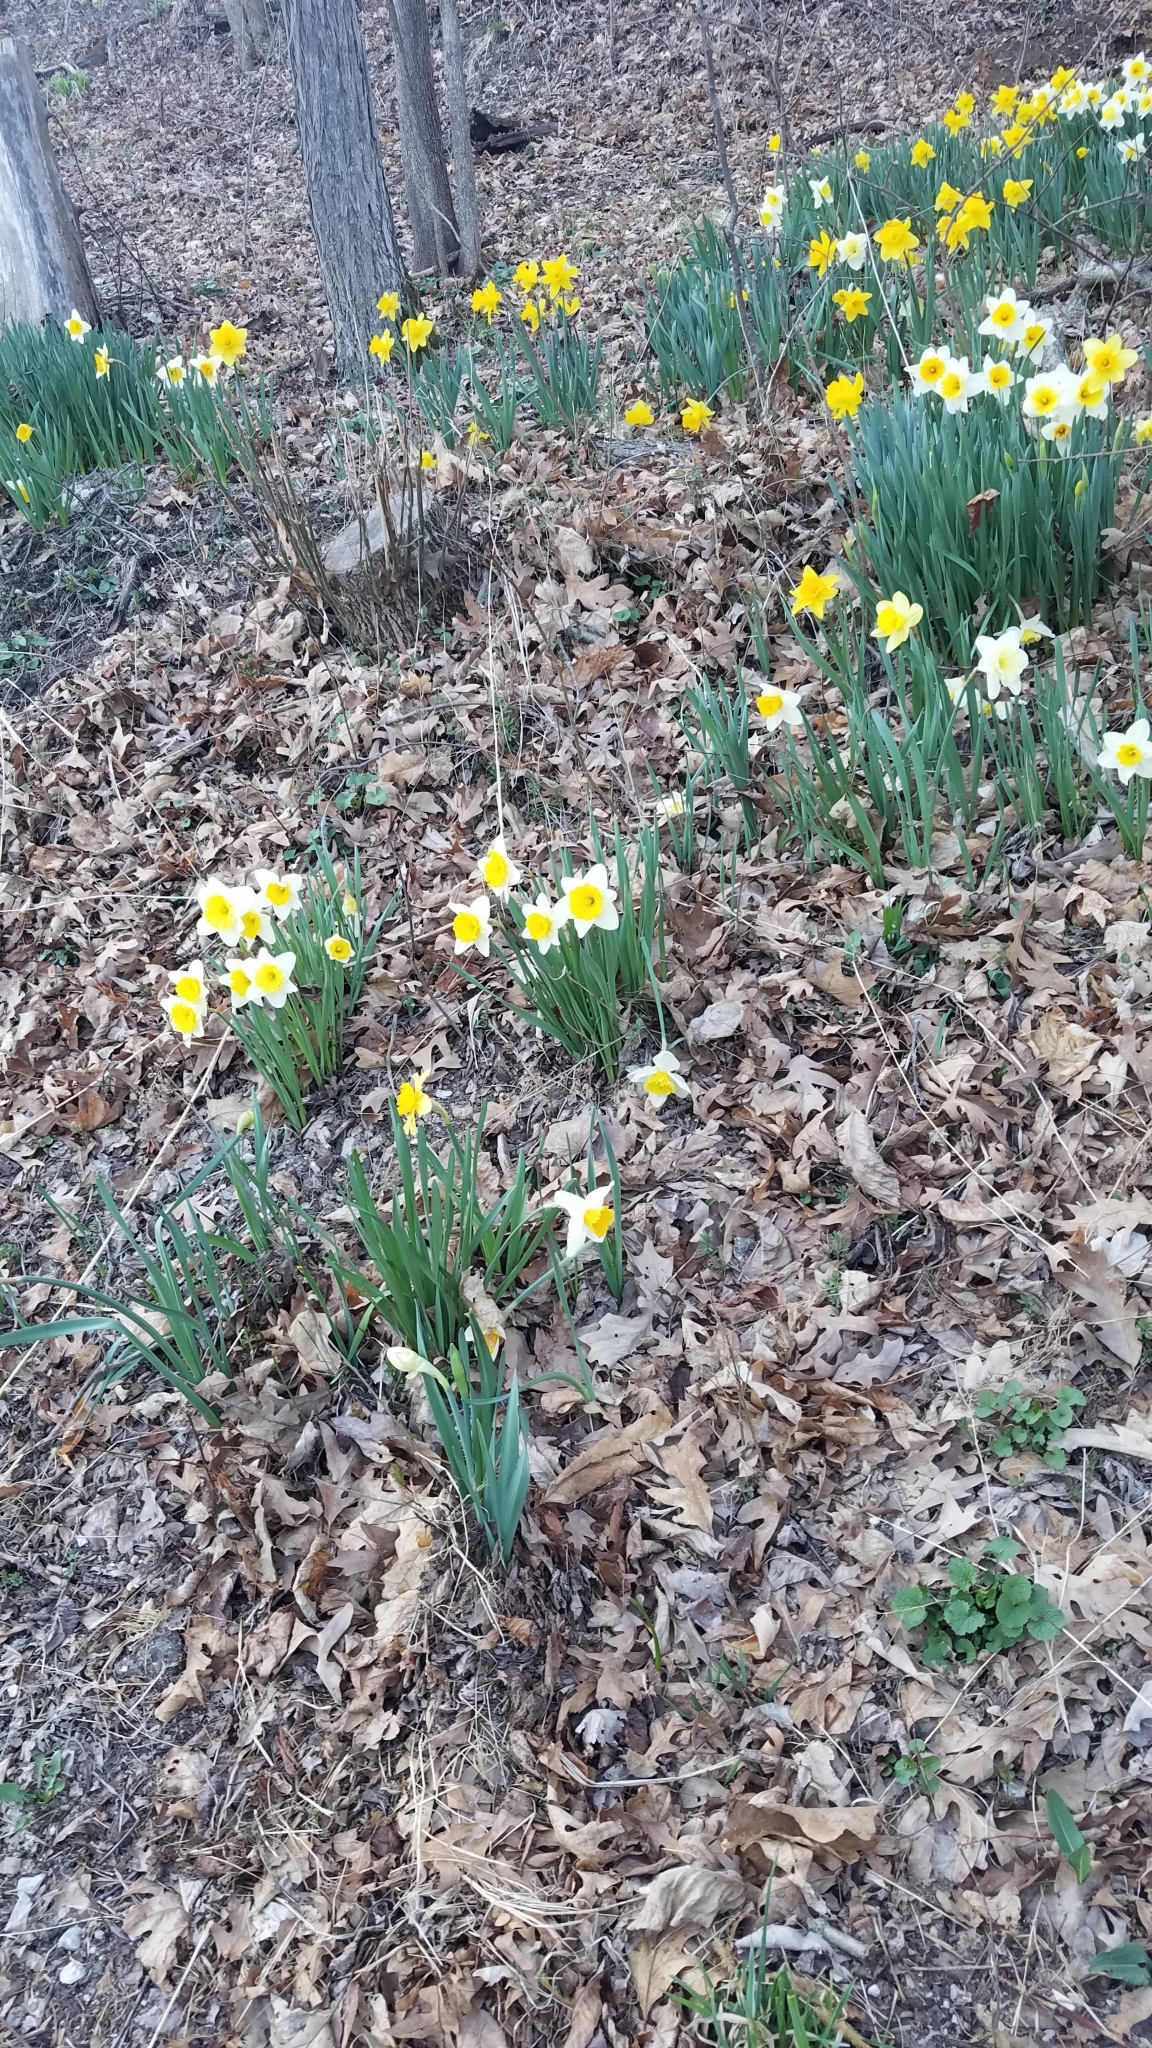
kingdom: Plantae
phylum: Tracheophyta
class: Liliopsida
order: Asparagales
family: Amaryllidaceae
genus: Narcissus
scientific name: Narcissus pseudonarcissus
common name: Daffodil
